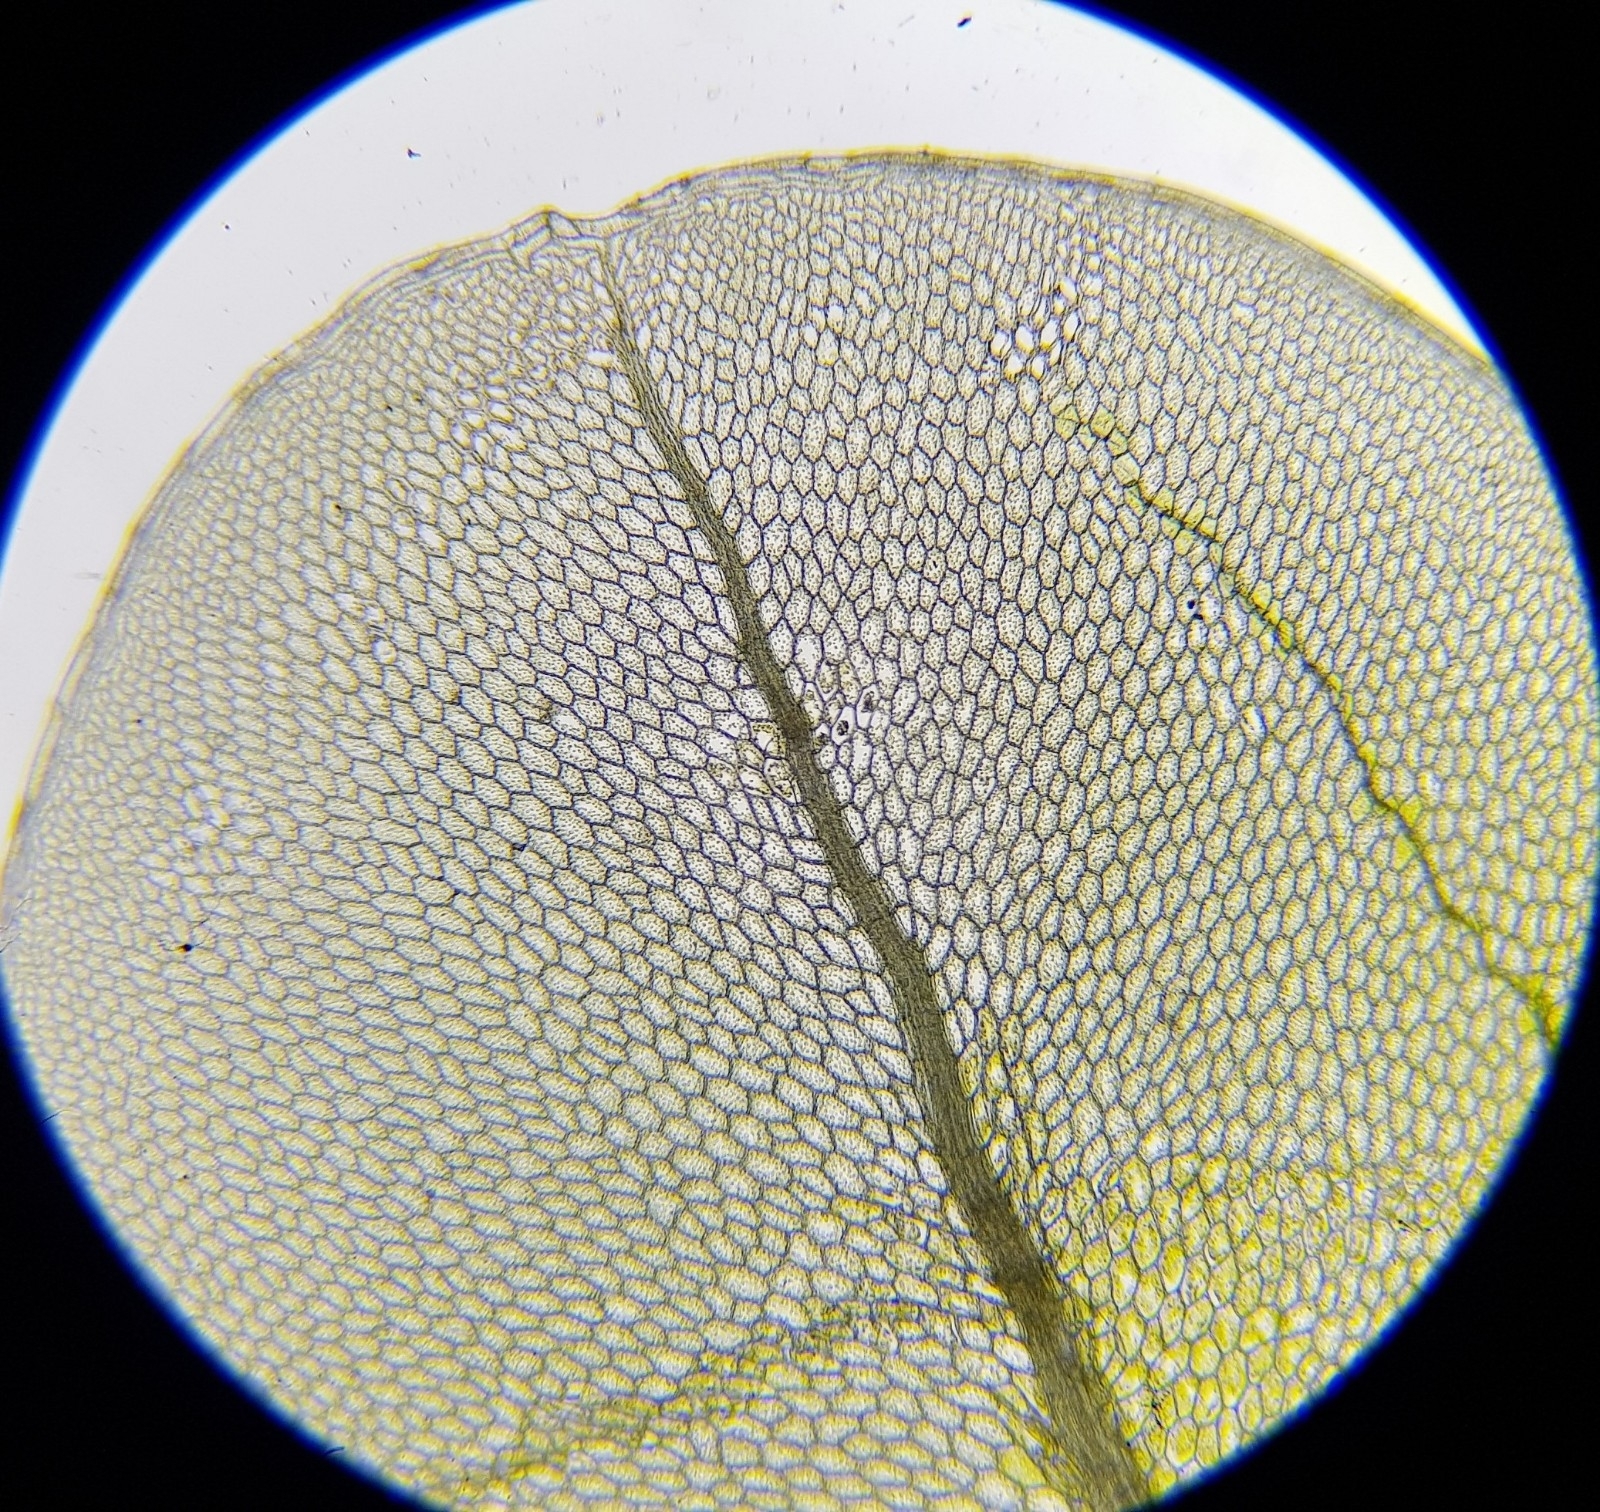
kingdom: Plantae
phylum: Bryophyta
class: Bryopsida
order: Bryales
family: Mniaceae
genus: Rhizomnium
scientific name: Rhizomnium punctatum
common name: Dotted leafy moss
